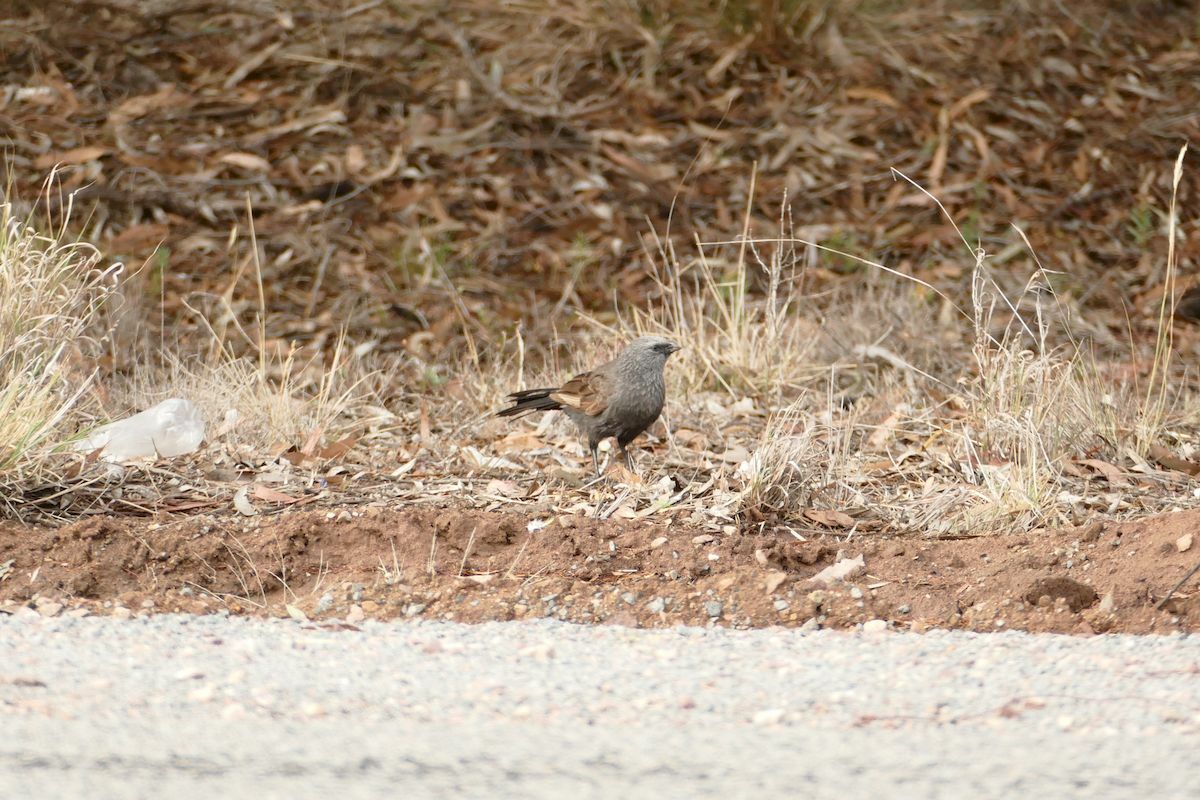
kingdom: Animalia
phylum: Chordata
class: Aves
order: Passeriformes
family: Corcoracidae
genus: Struthidea
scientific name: Struthidea cinerea
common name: Apostlebird
